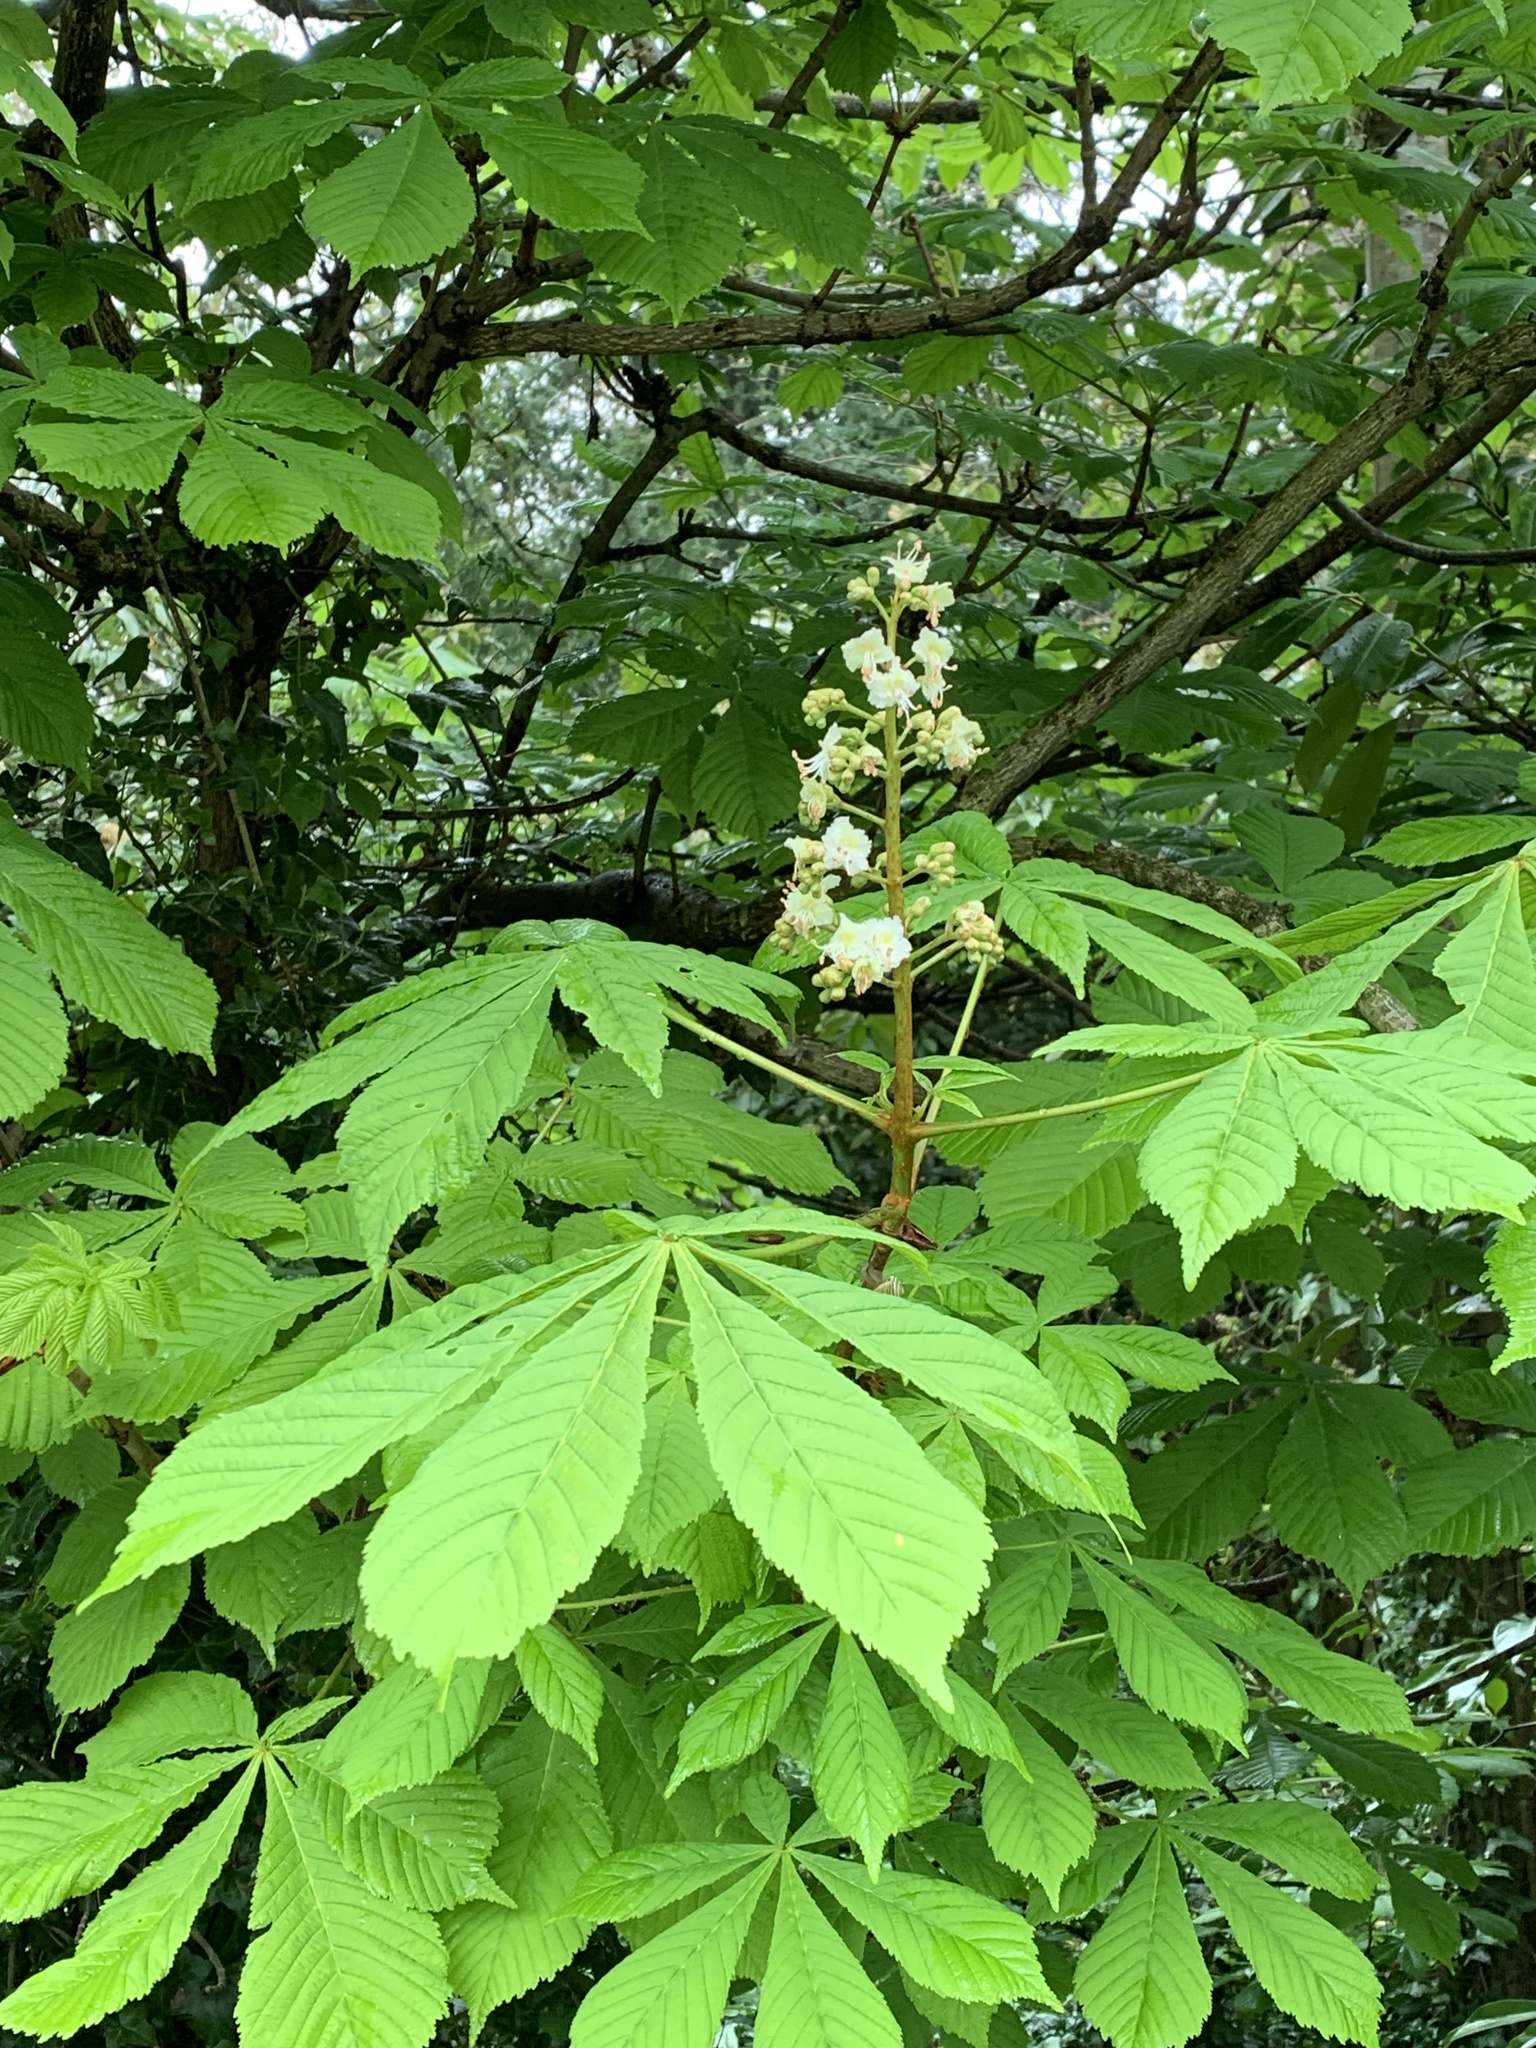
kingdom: Plantae
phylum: Tracheophyta
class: Magnoliopsida
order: Sapindales
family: Sapindaceae
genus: Aesculus
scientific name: Aesculus hippocastanum
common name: Horse-chestnut
